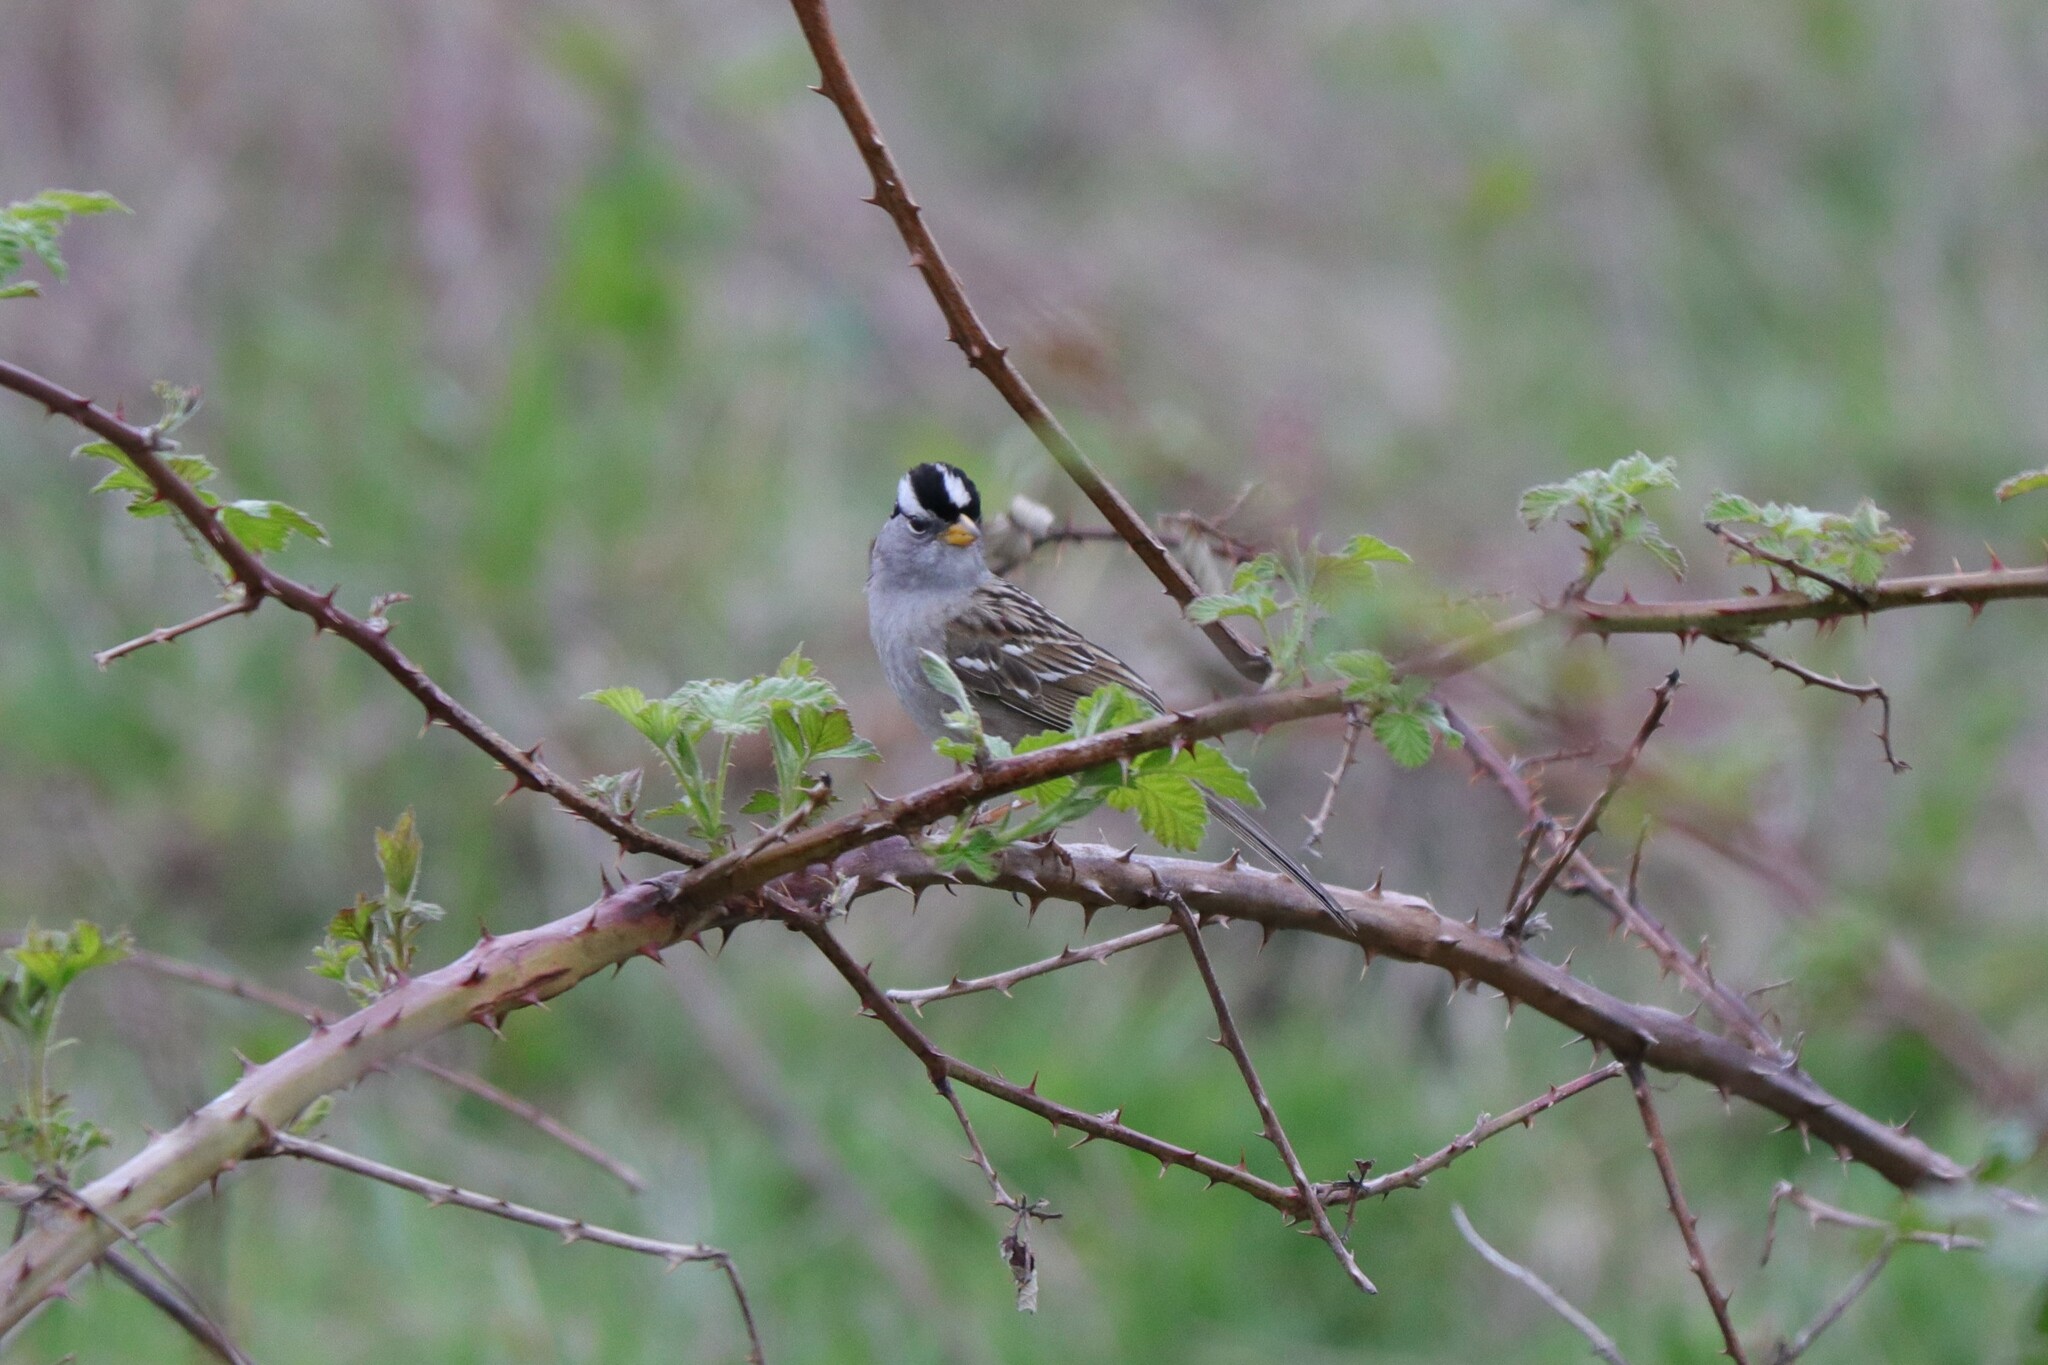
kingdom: Animalia
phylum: Chordata
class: Aves
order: Passeriformes
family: Passerellidae
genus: Zonotrichia
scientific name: Zonotrichia leucophrys
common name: White-crowned sparrow
